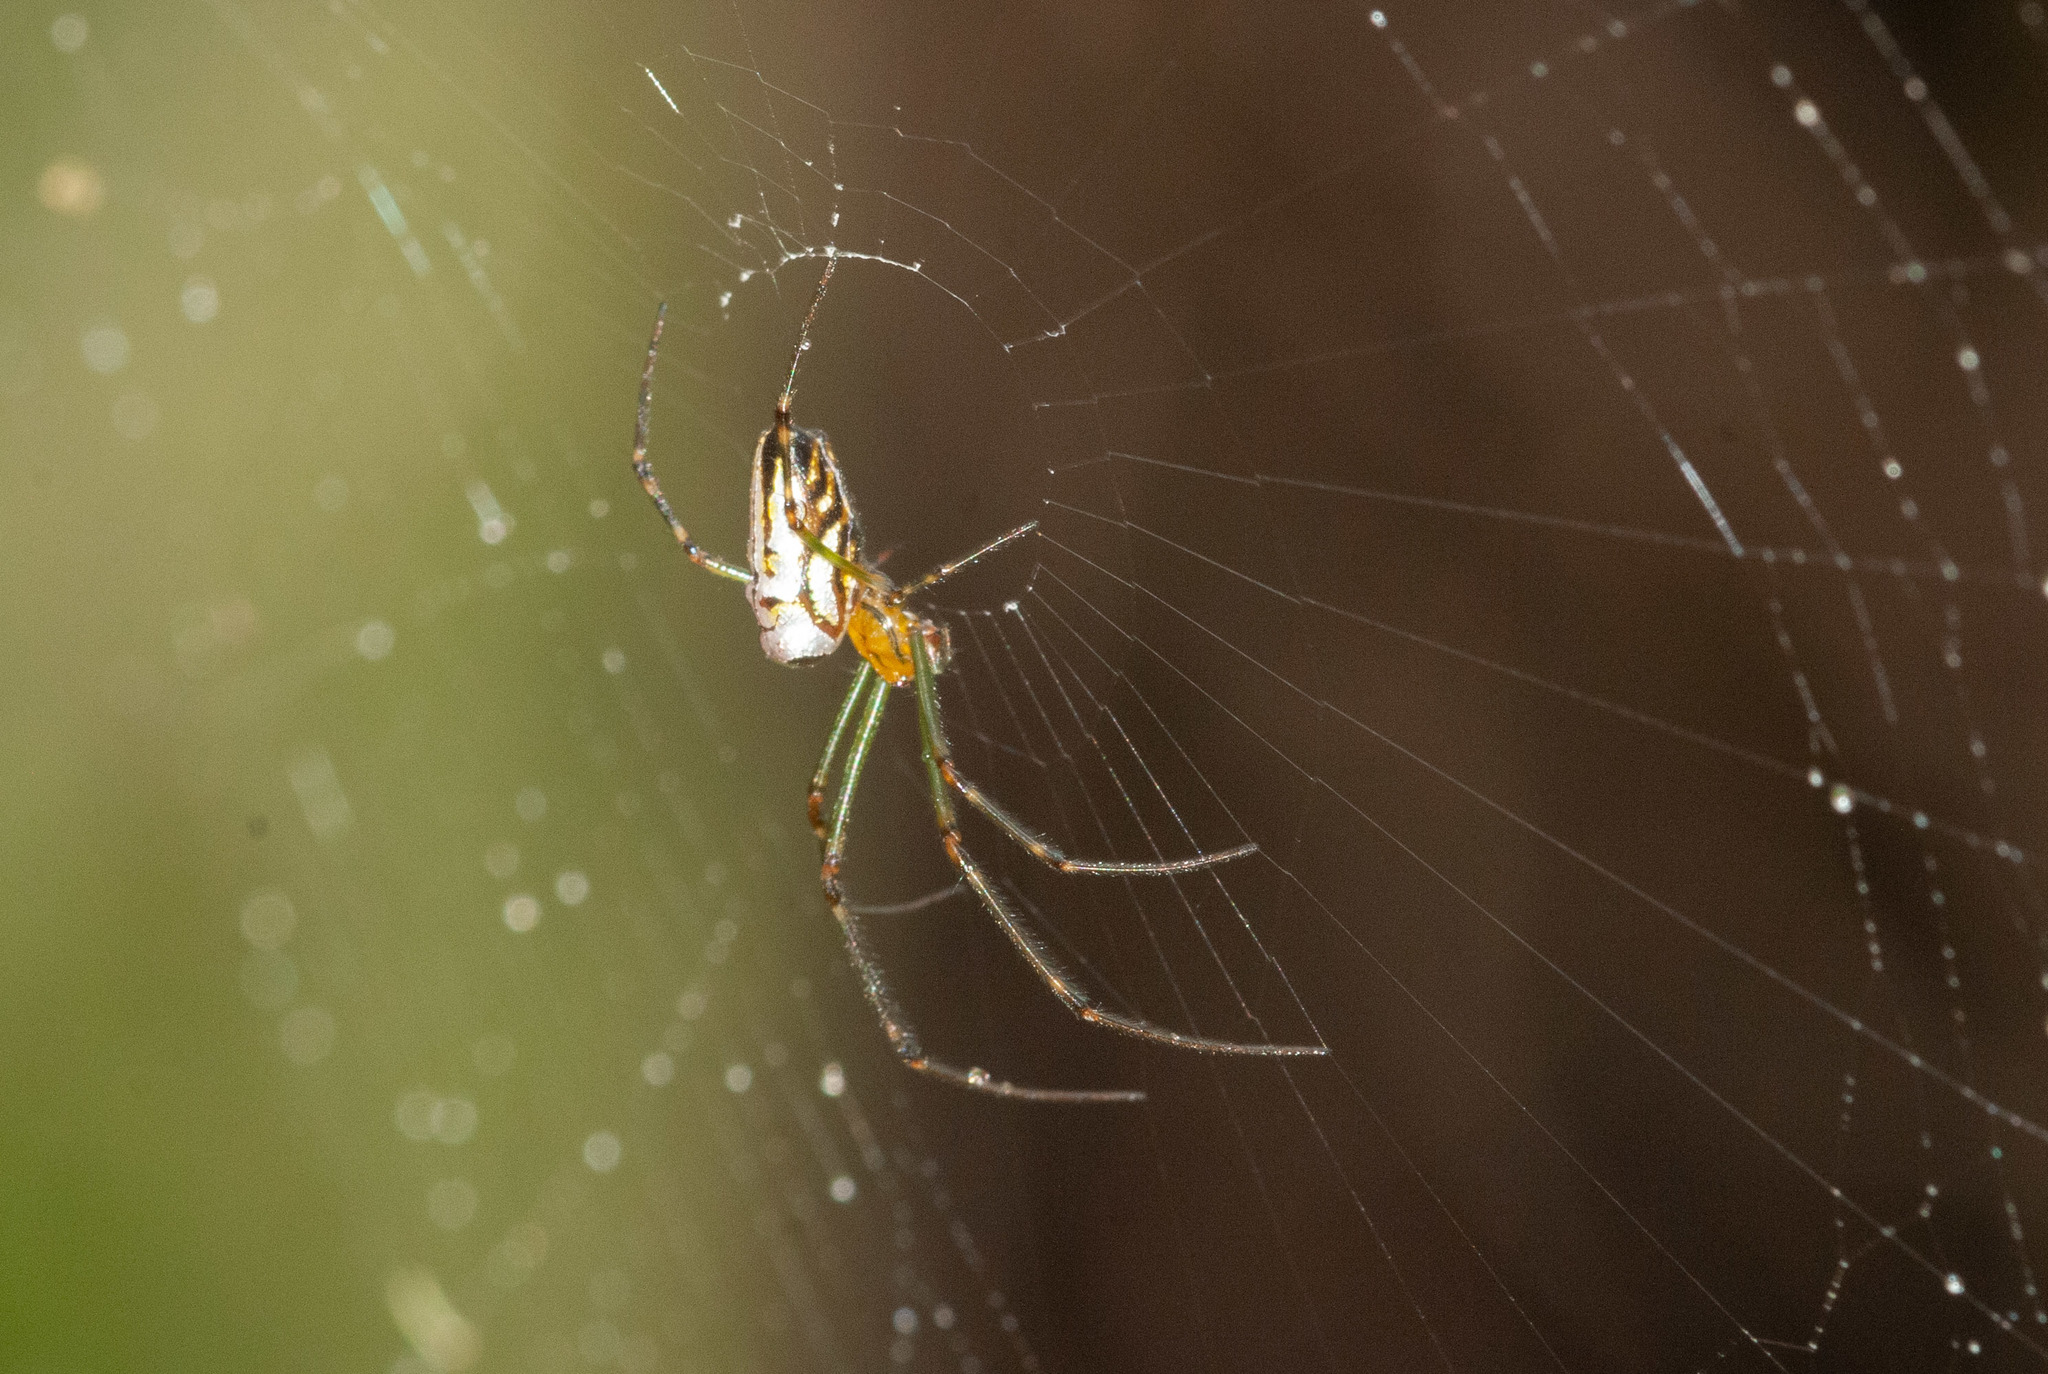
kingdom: Animalia
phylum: Arthropoda
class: Arachnida
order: Araneae
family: Tetragnathidae
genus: Leucauge
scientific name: Leucauge dromedaria
